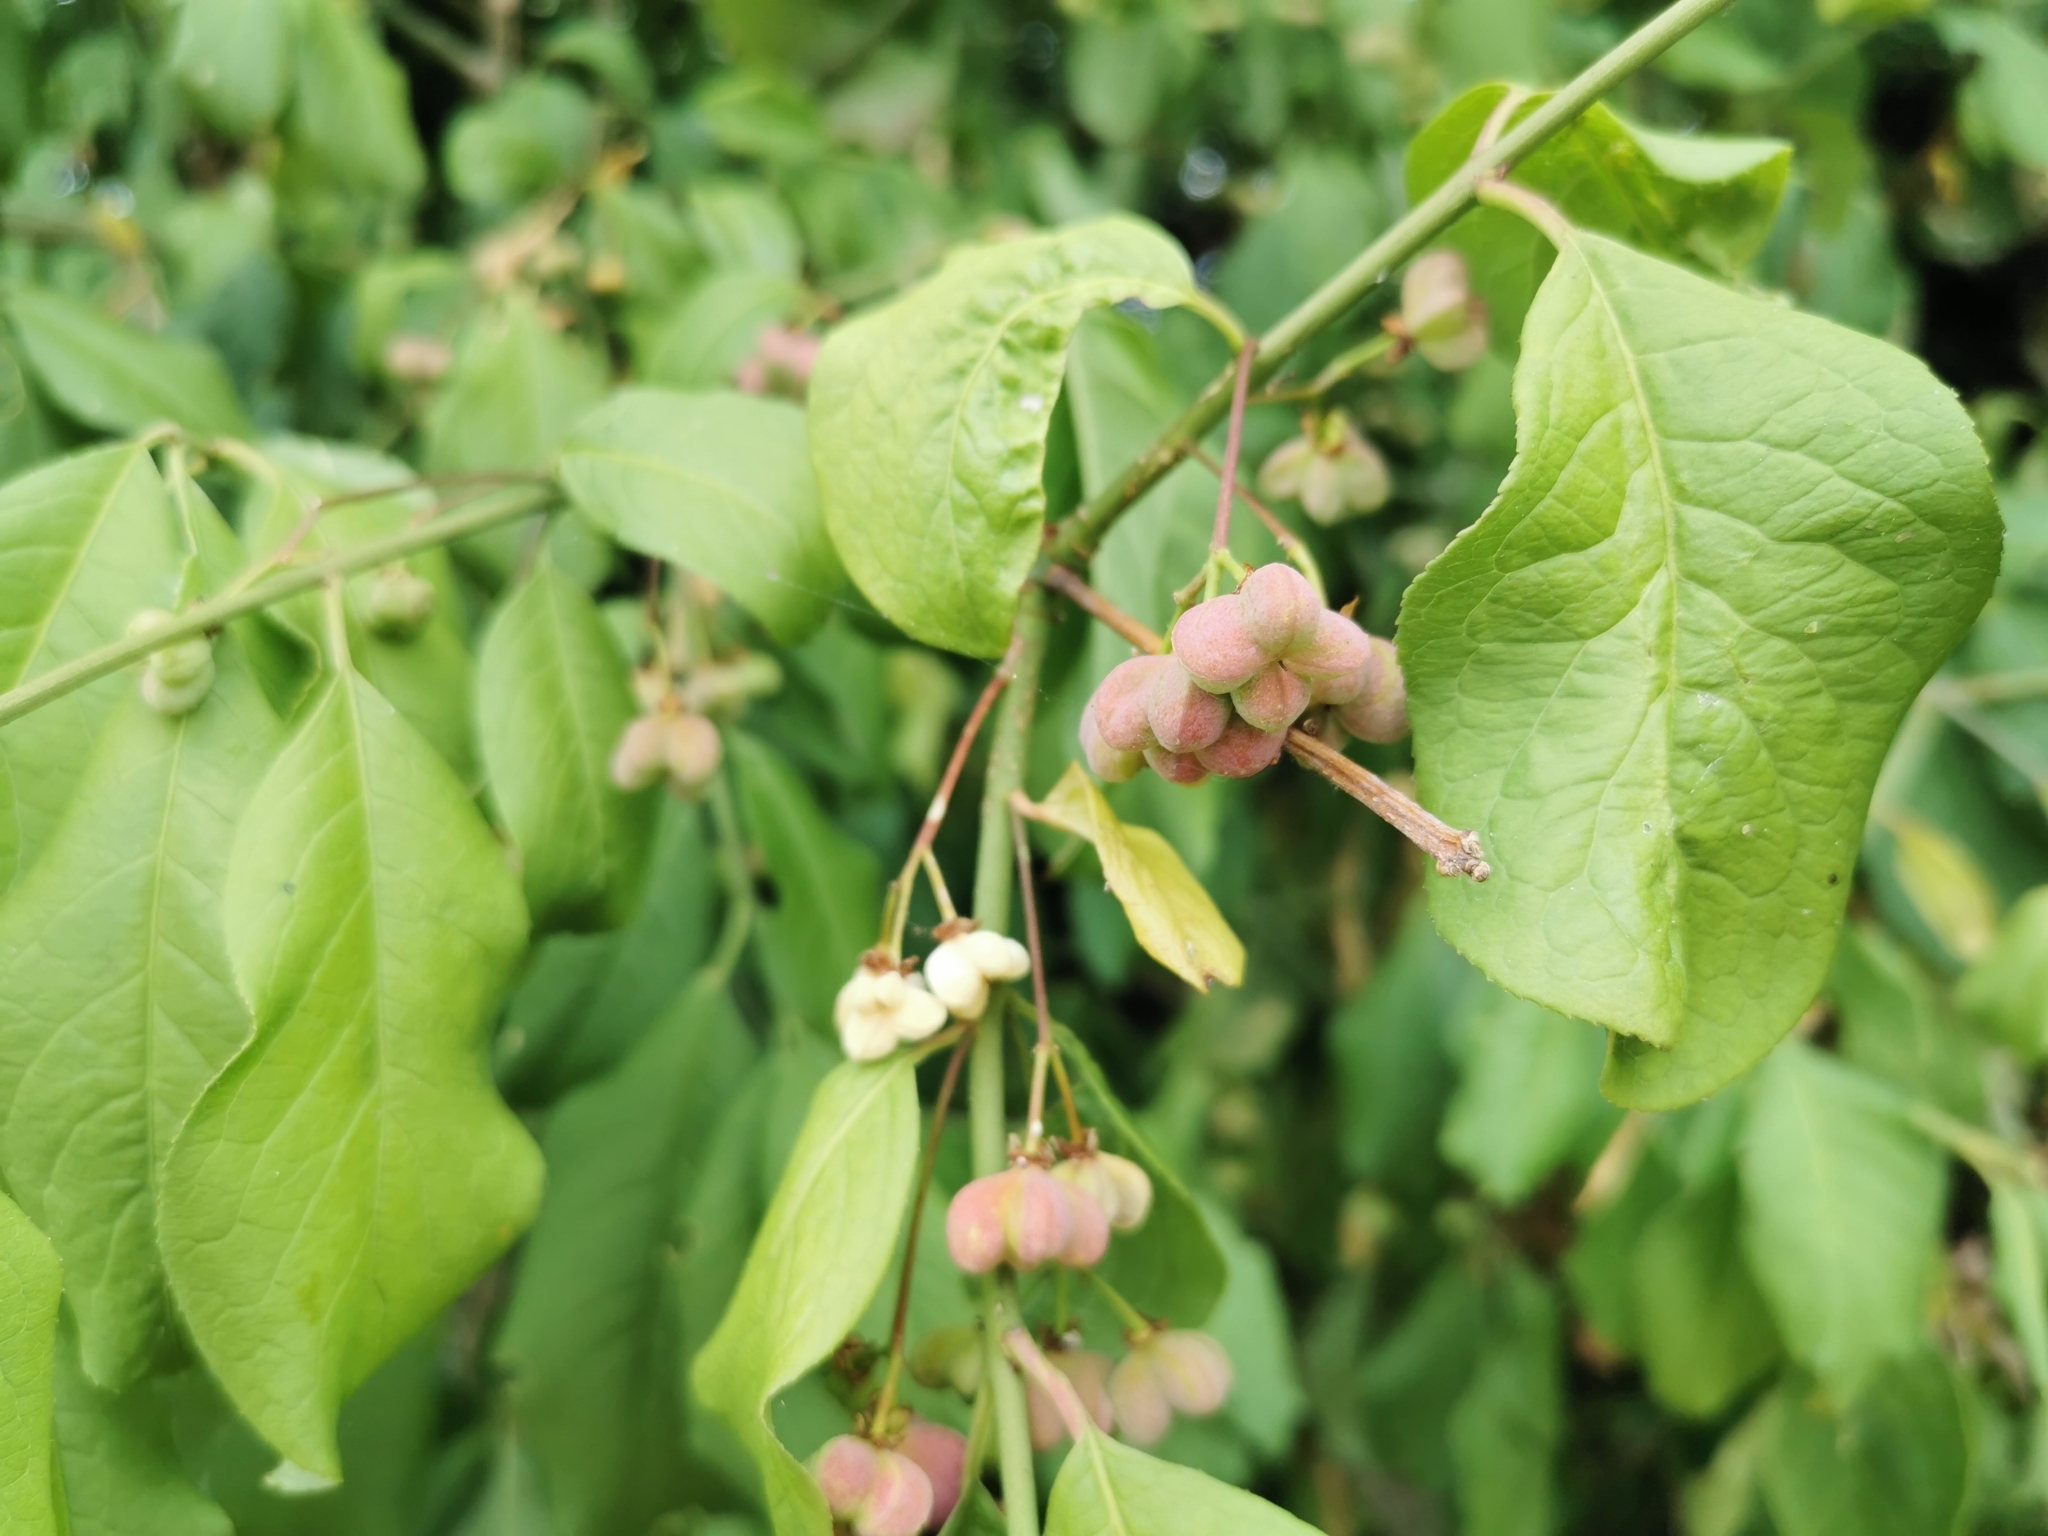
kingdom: Plantae
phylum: Tracheophyta
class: Magnoliopsida
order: Celastrales
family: Celastraceae
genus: Euonymus
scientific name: Euonymus europaeus
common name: Spindle
